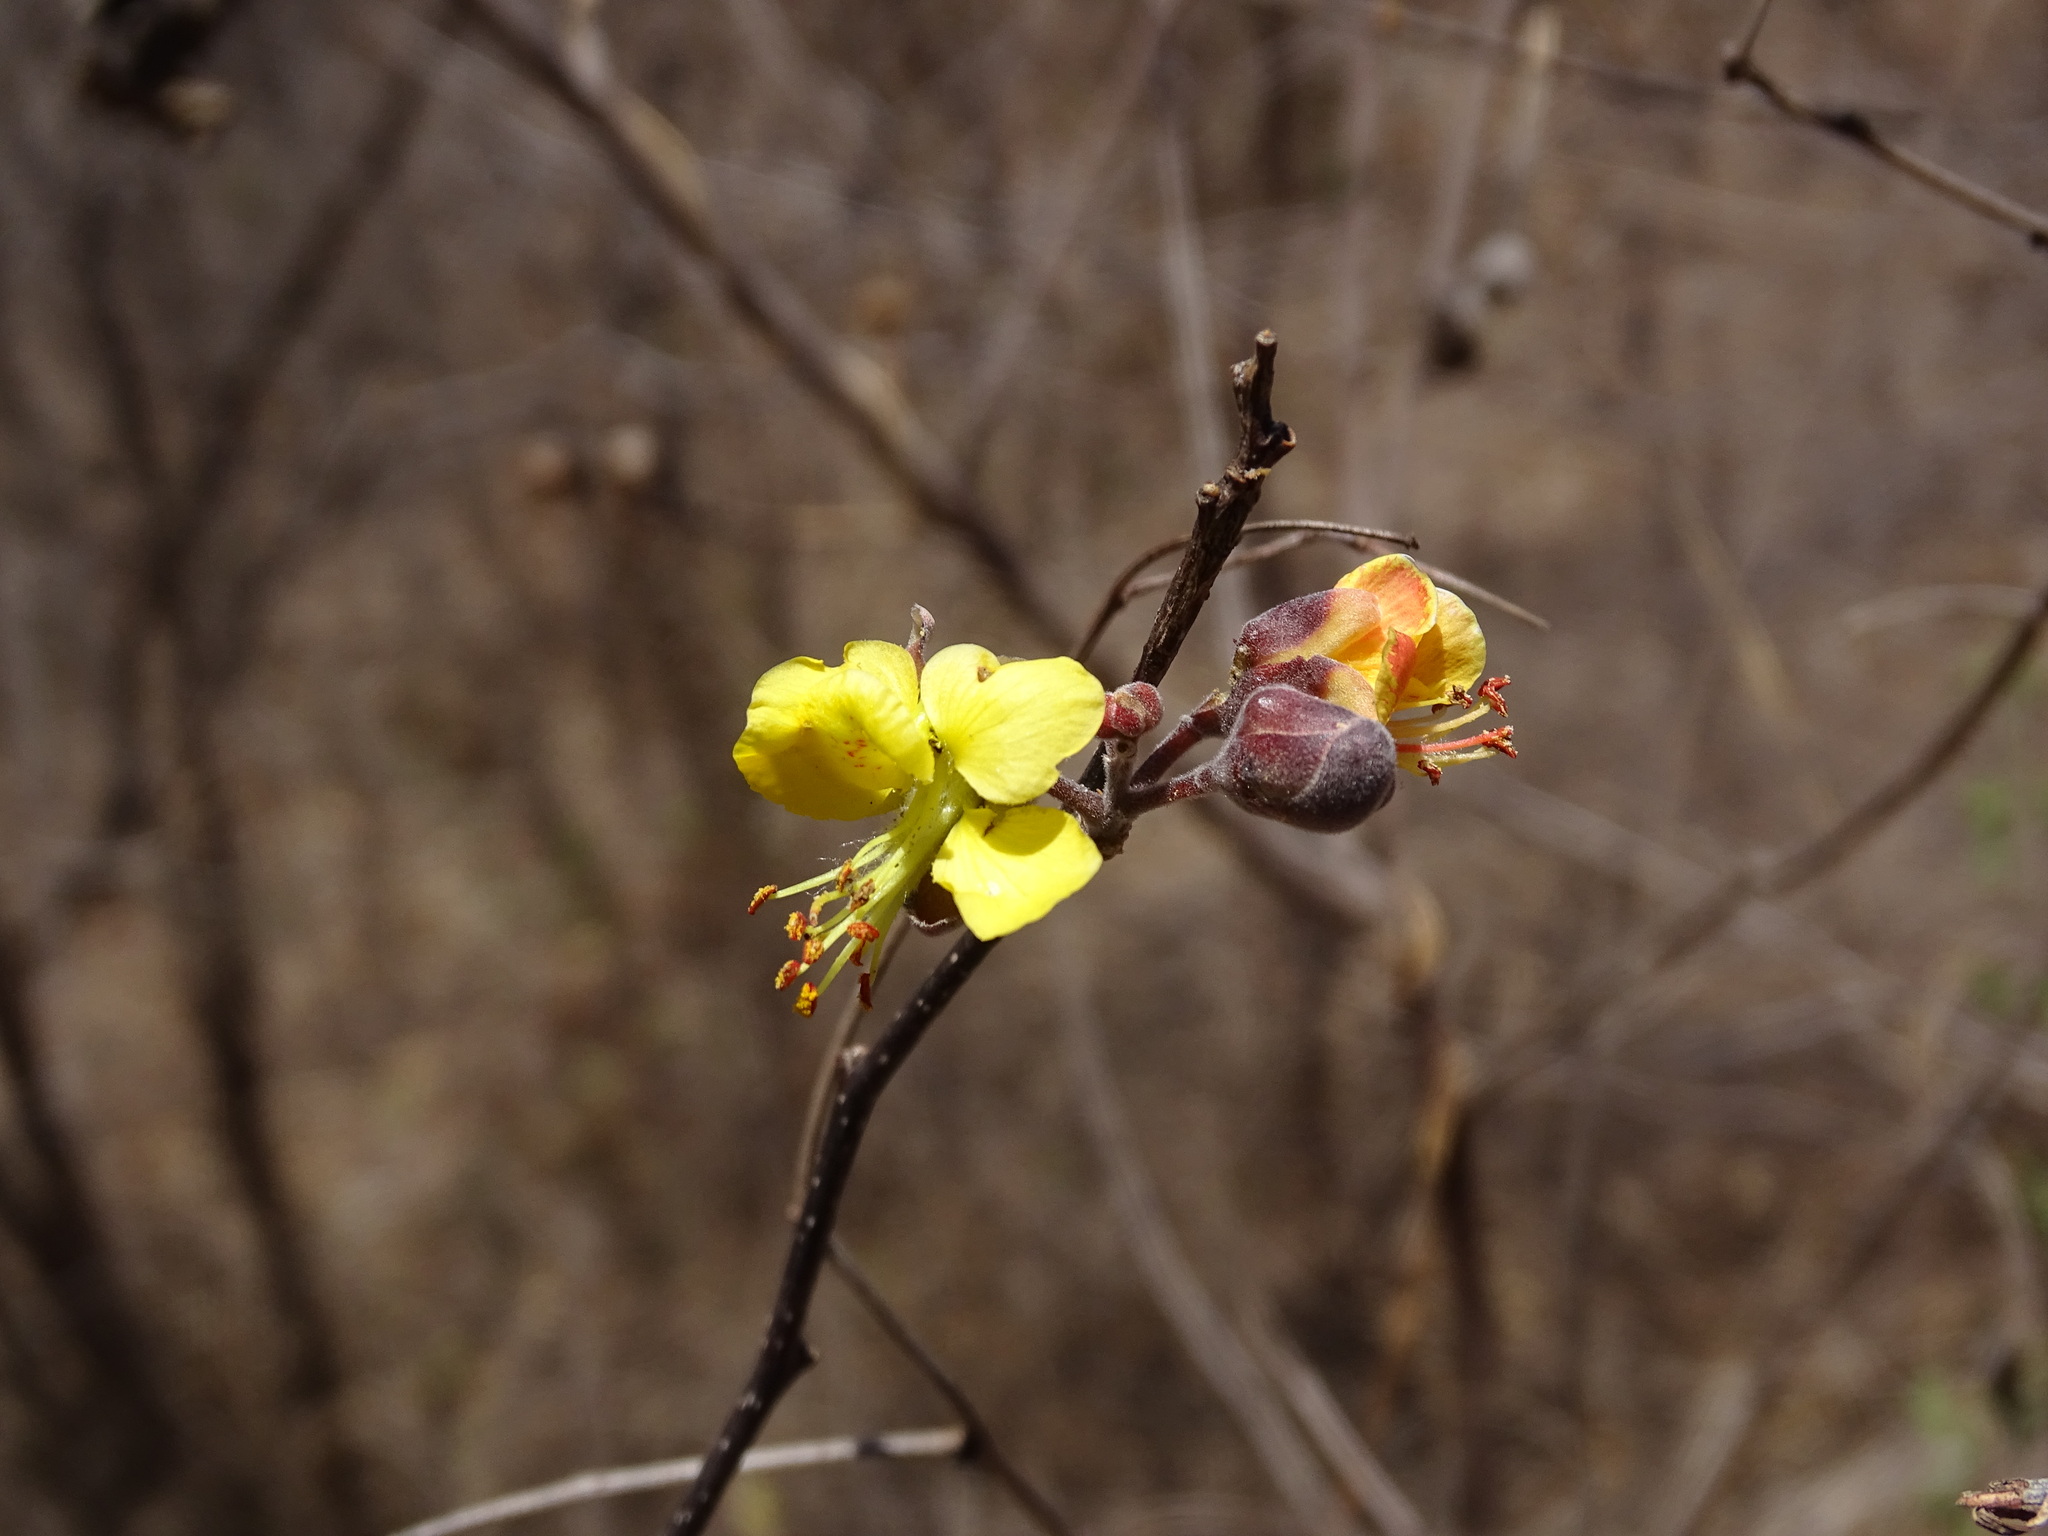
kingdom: Plantae
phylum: Tracheophyta
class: Magnoliopsida
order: Fabales
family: Fabaceae
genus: Erythrostemon
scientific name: Erythrostemon palmeri
